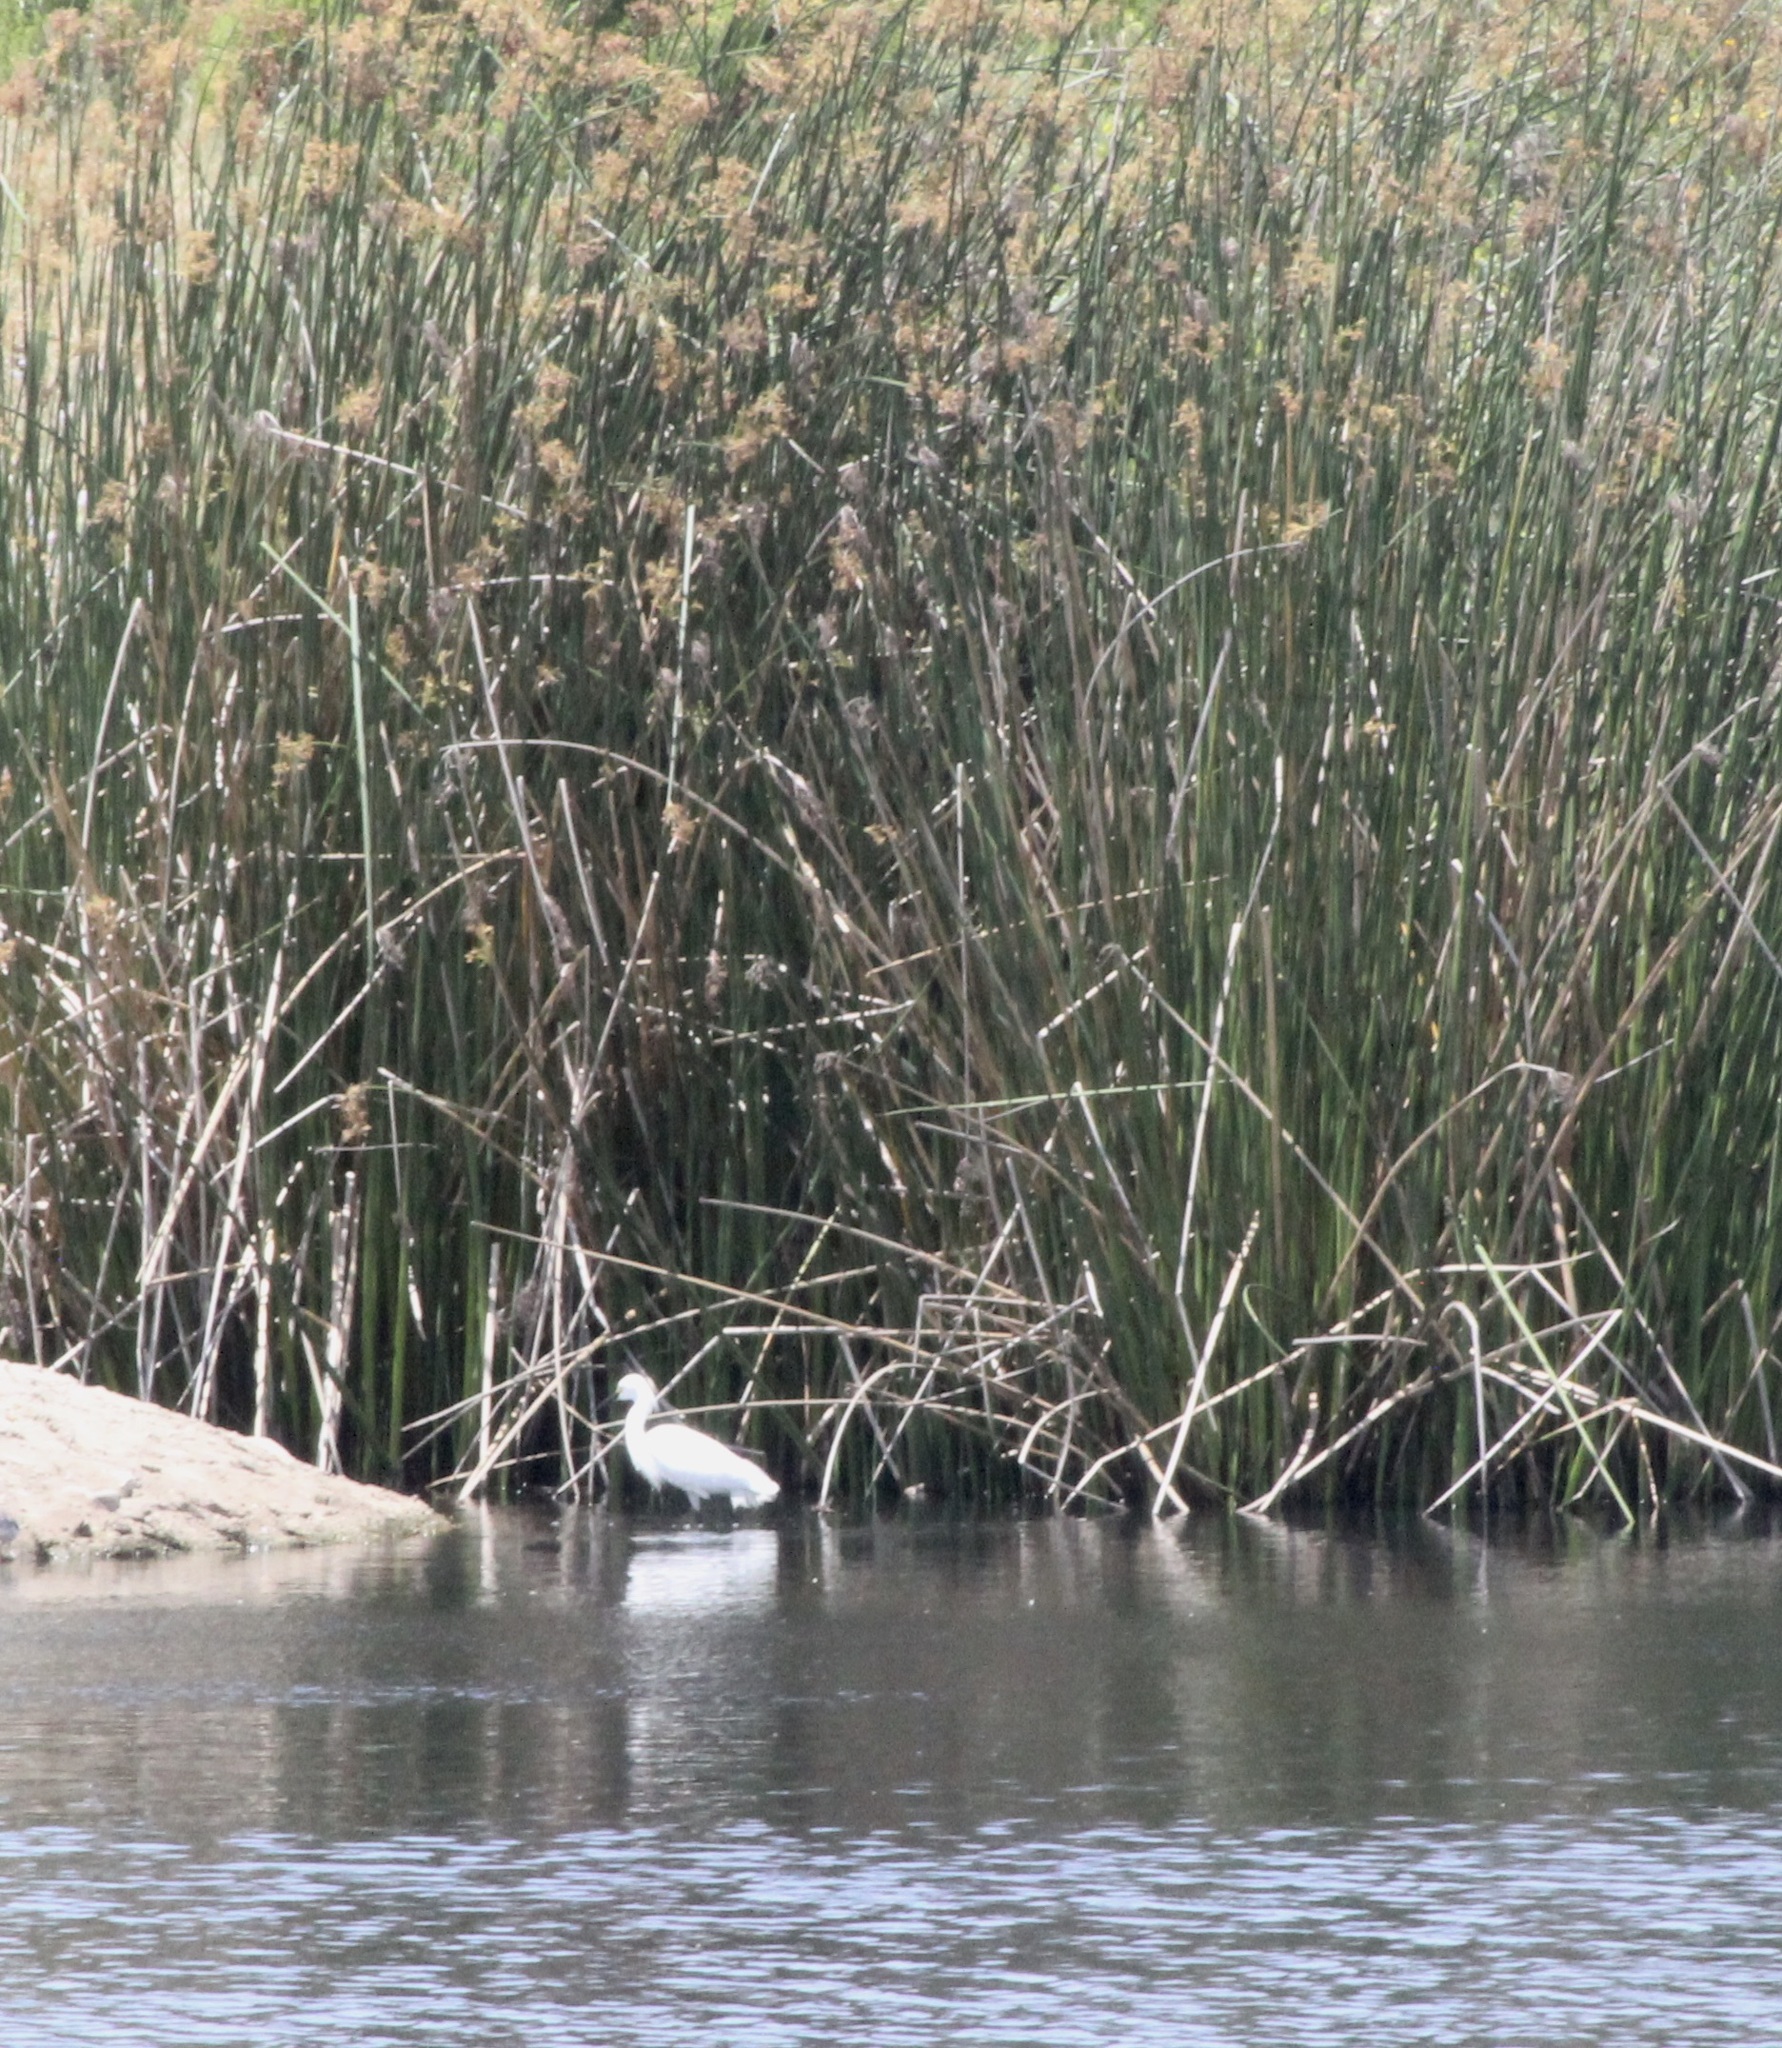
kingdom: Animalia
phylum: Chordata
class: Aves
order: Pelecaniformes
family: Ardeidae
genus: Egretta
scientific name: Egretta thula
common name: Snowy egret
